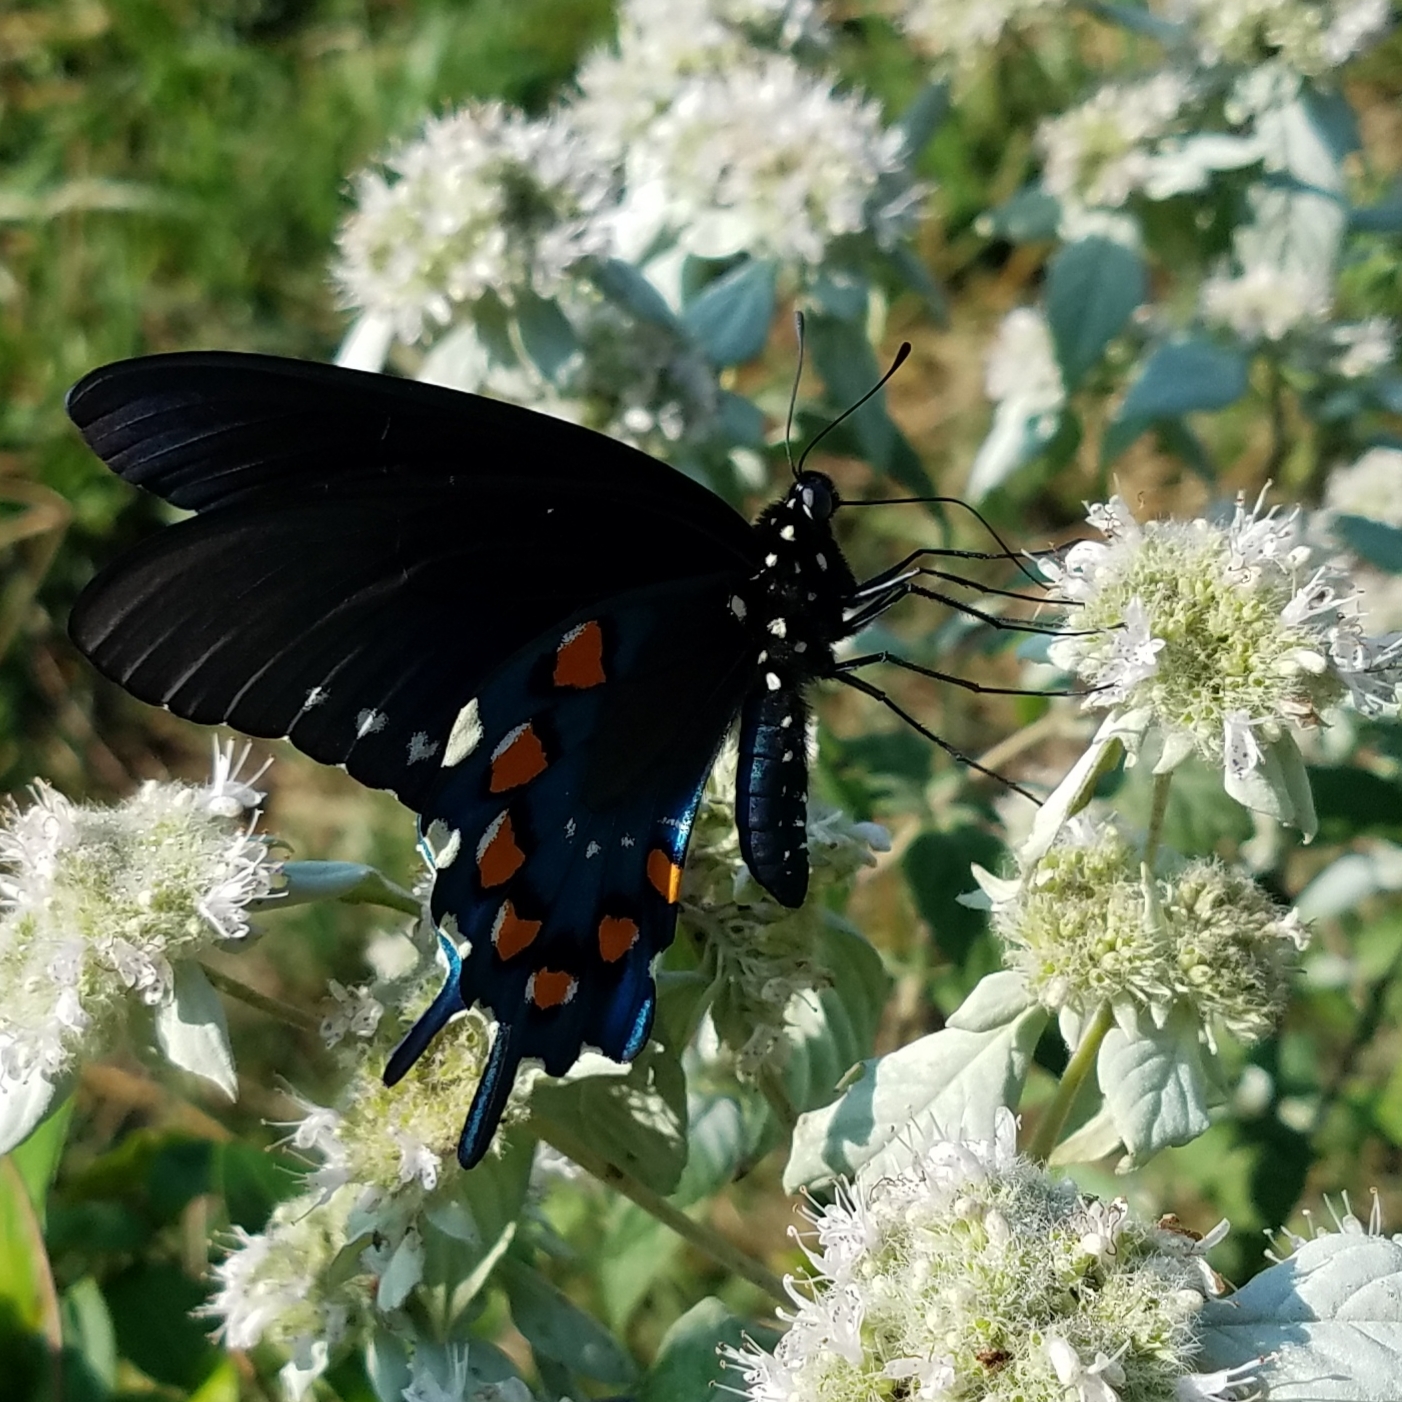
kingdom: Animalia
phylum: Arthropoda
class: Insecta
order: Lepidoptera
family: Papilionidae
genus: Battus
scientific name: Battus philenor
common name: Pipevine swallowtail
